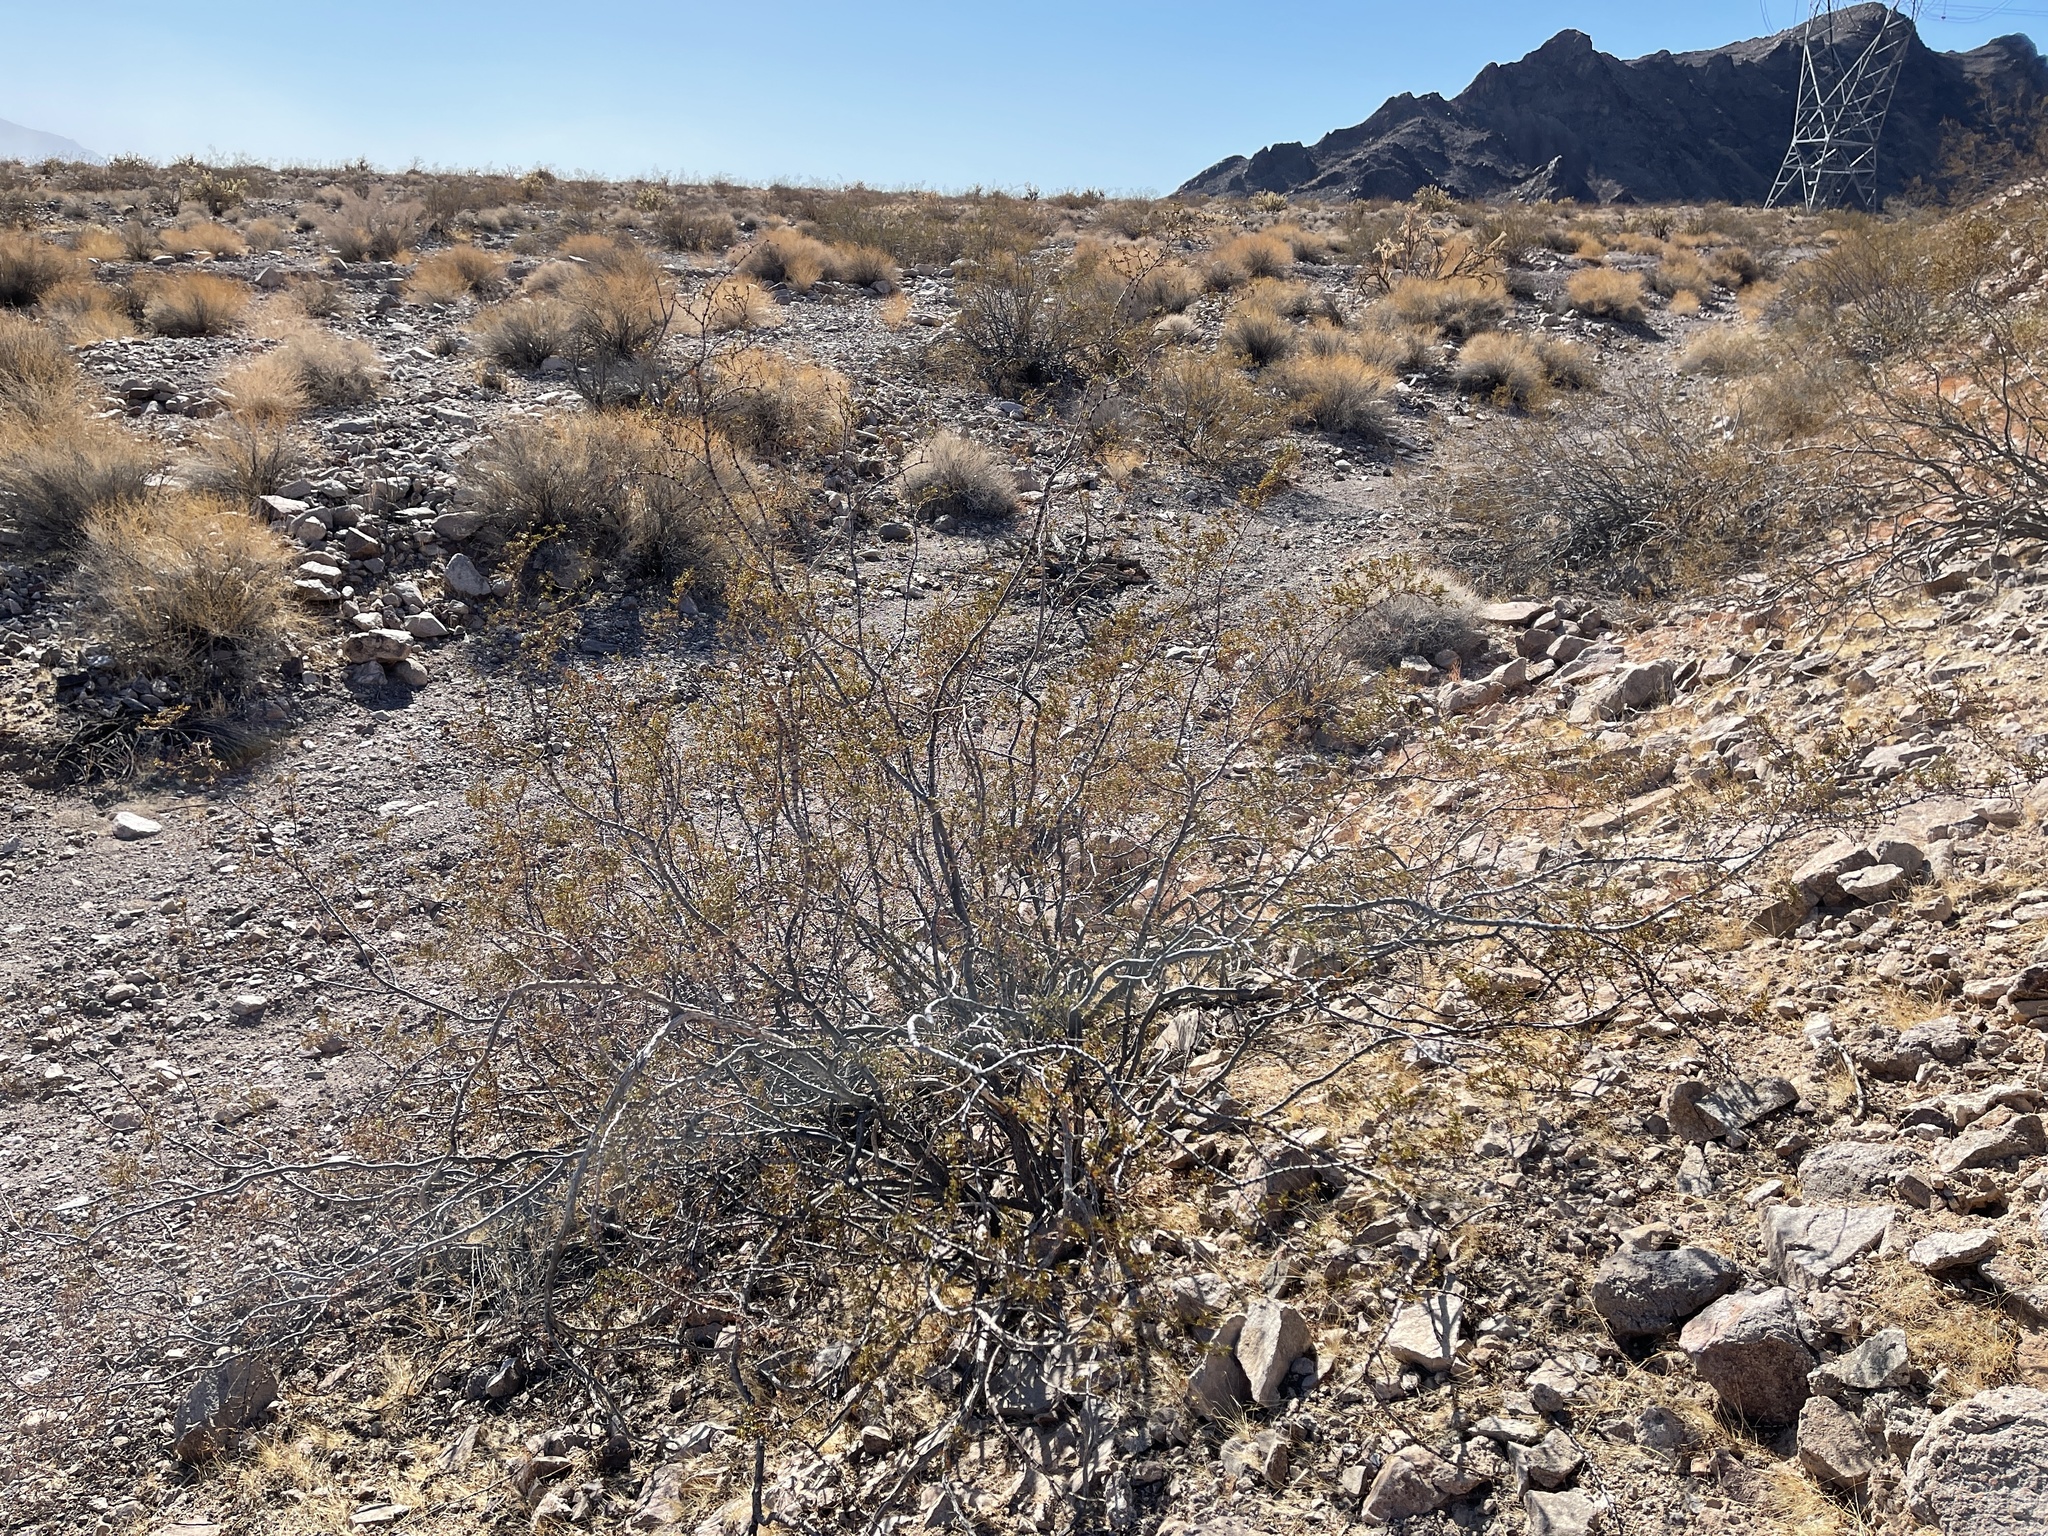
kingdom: Plantae
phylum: Tracheophyta
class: Magnoliopsida
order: Zygophyllales
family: Zygophyllaceae
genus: Larrea
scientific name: Larrea tridentata
